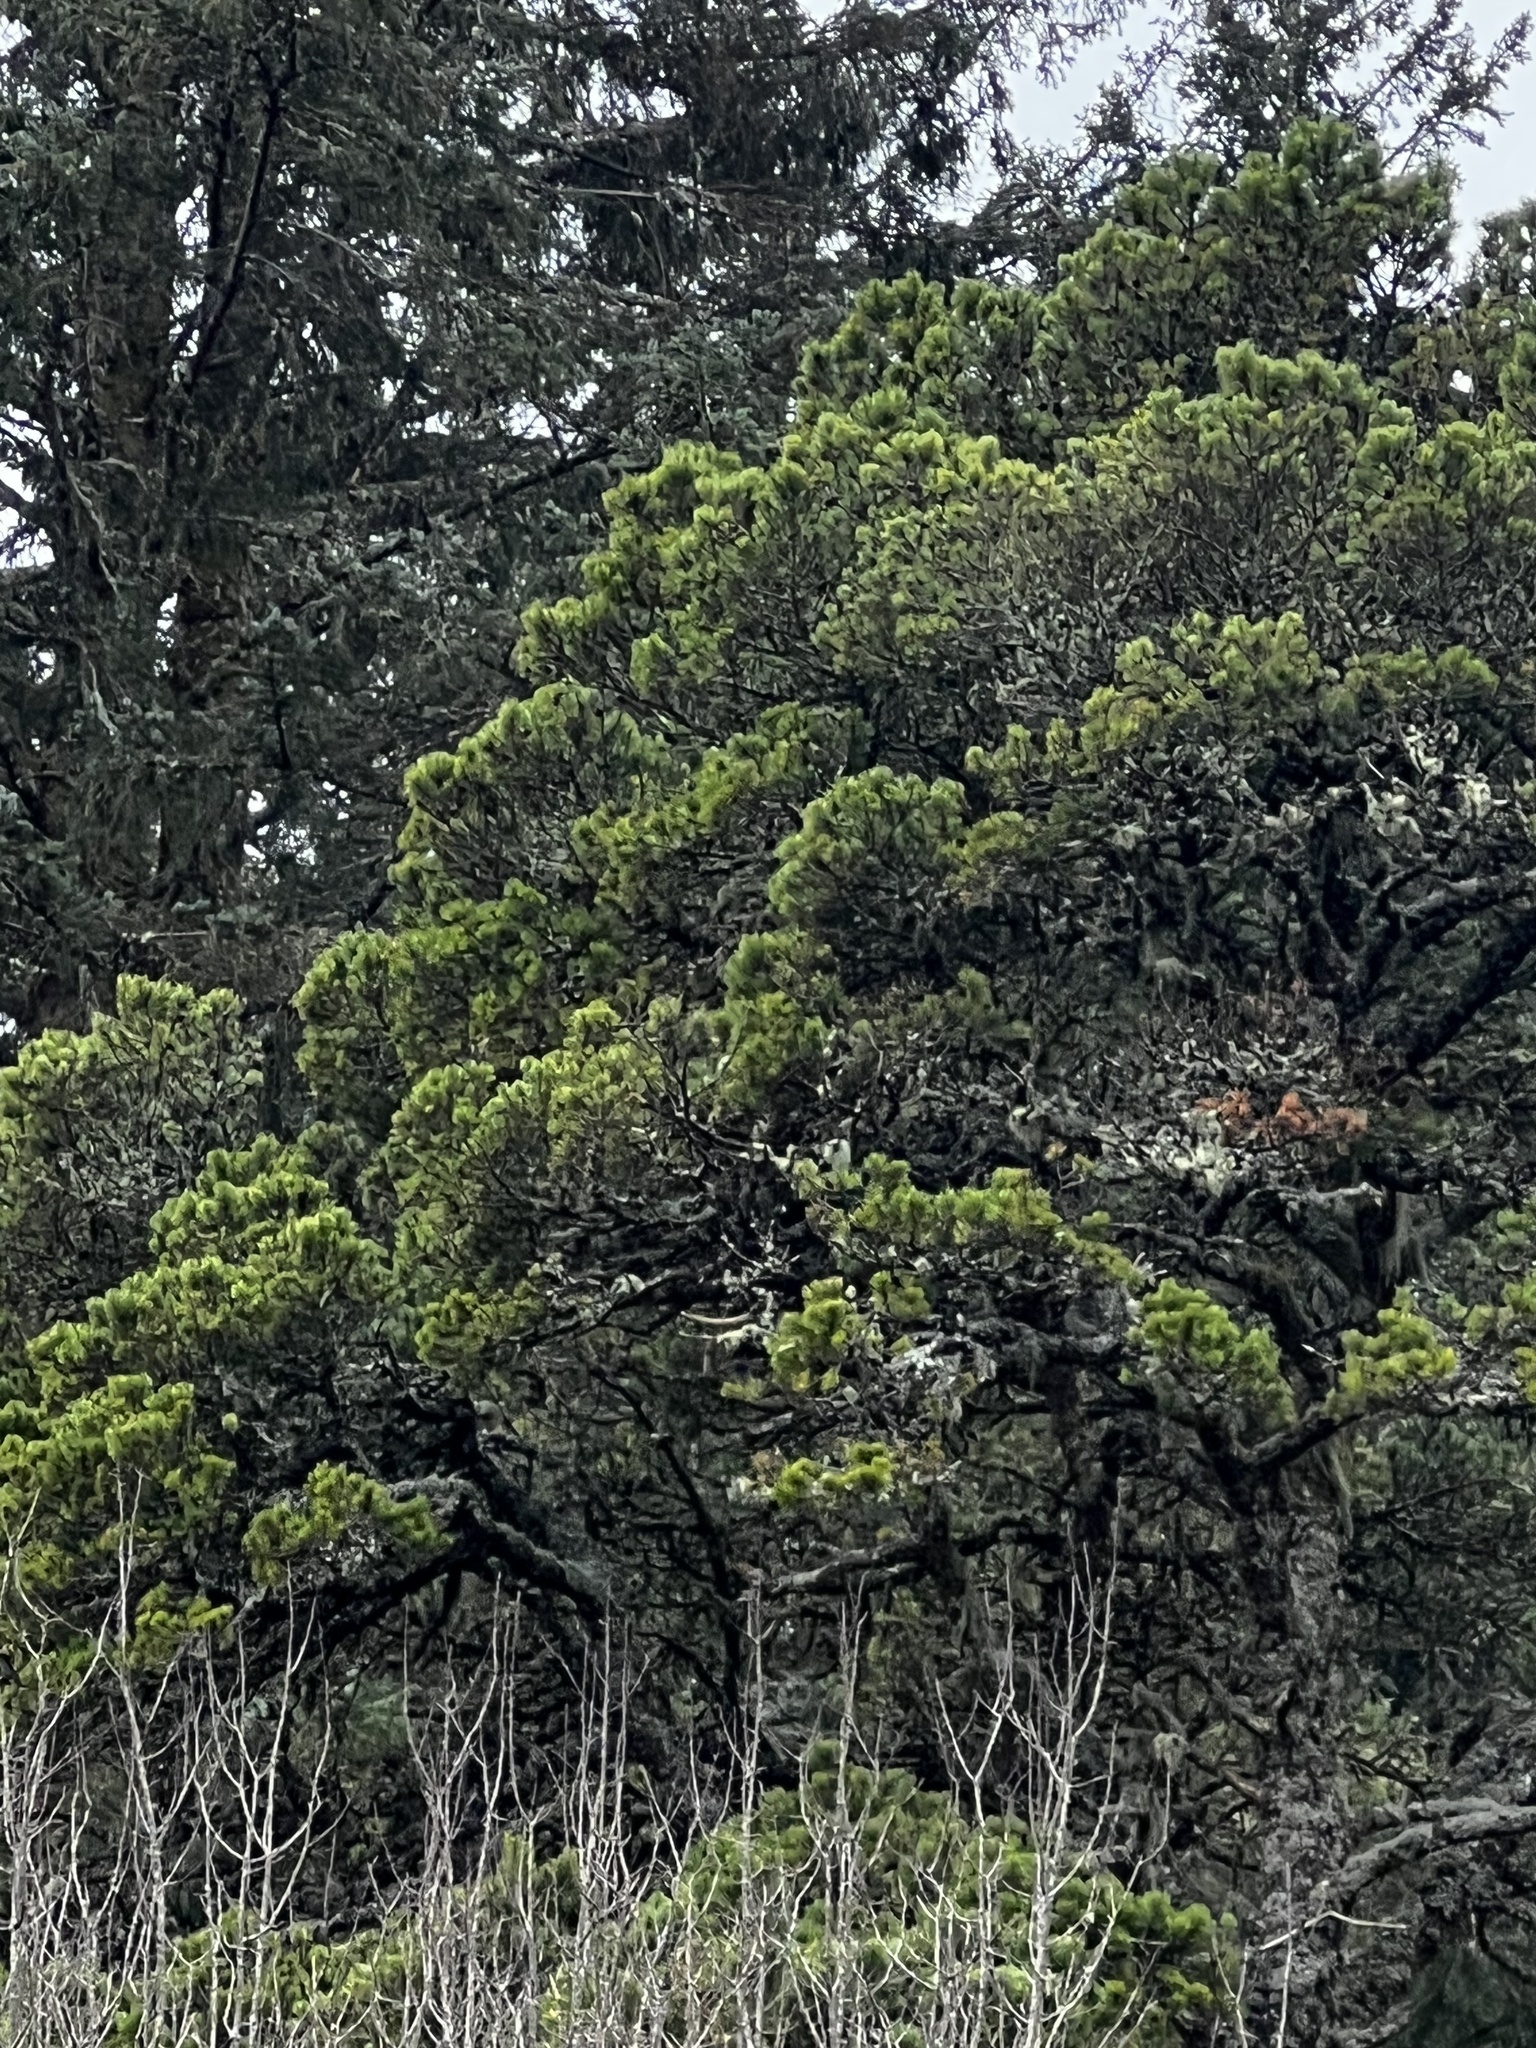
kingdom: Plantae
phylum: Tracheophyta
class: Pinopsida
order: Pinales
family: Pinaceae
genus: Pinus
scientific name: Pinus contorta
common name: Lodgepole pine
